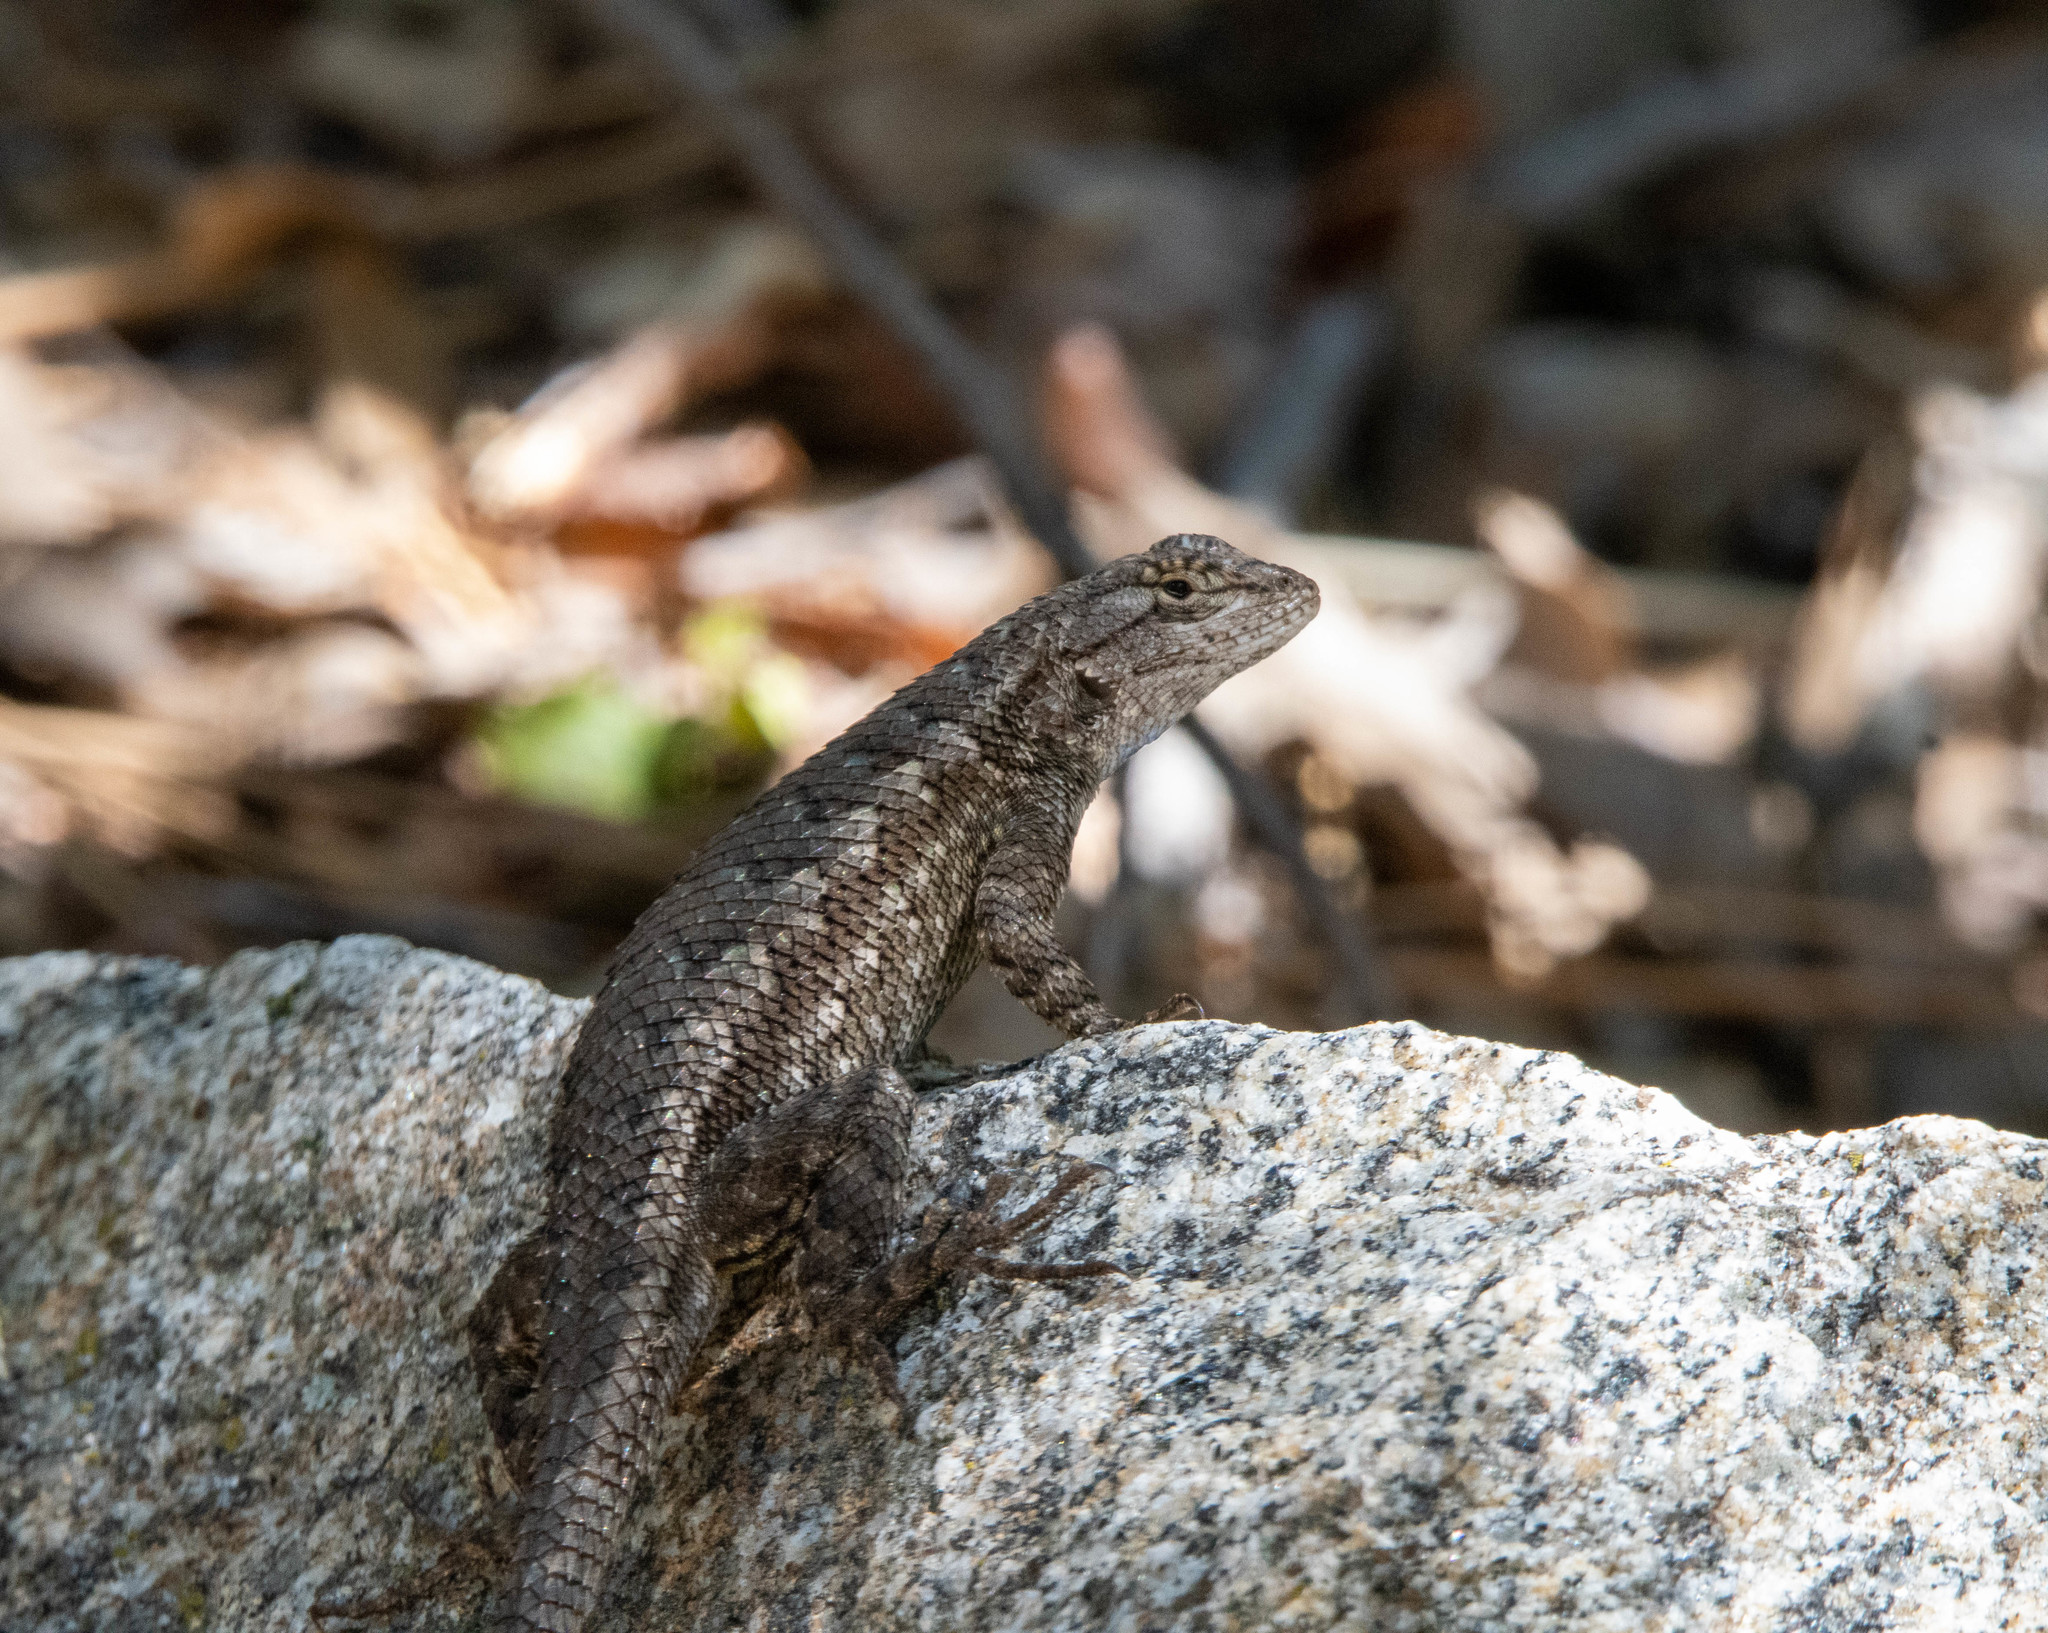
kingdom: Animalia
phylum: Chordata
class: Squamata
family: Phrynosomatidae
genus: Sceloporus
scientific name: Sceloporus occidentalis
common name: Western fence lizard
